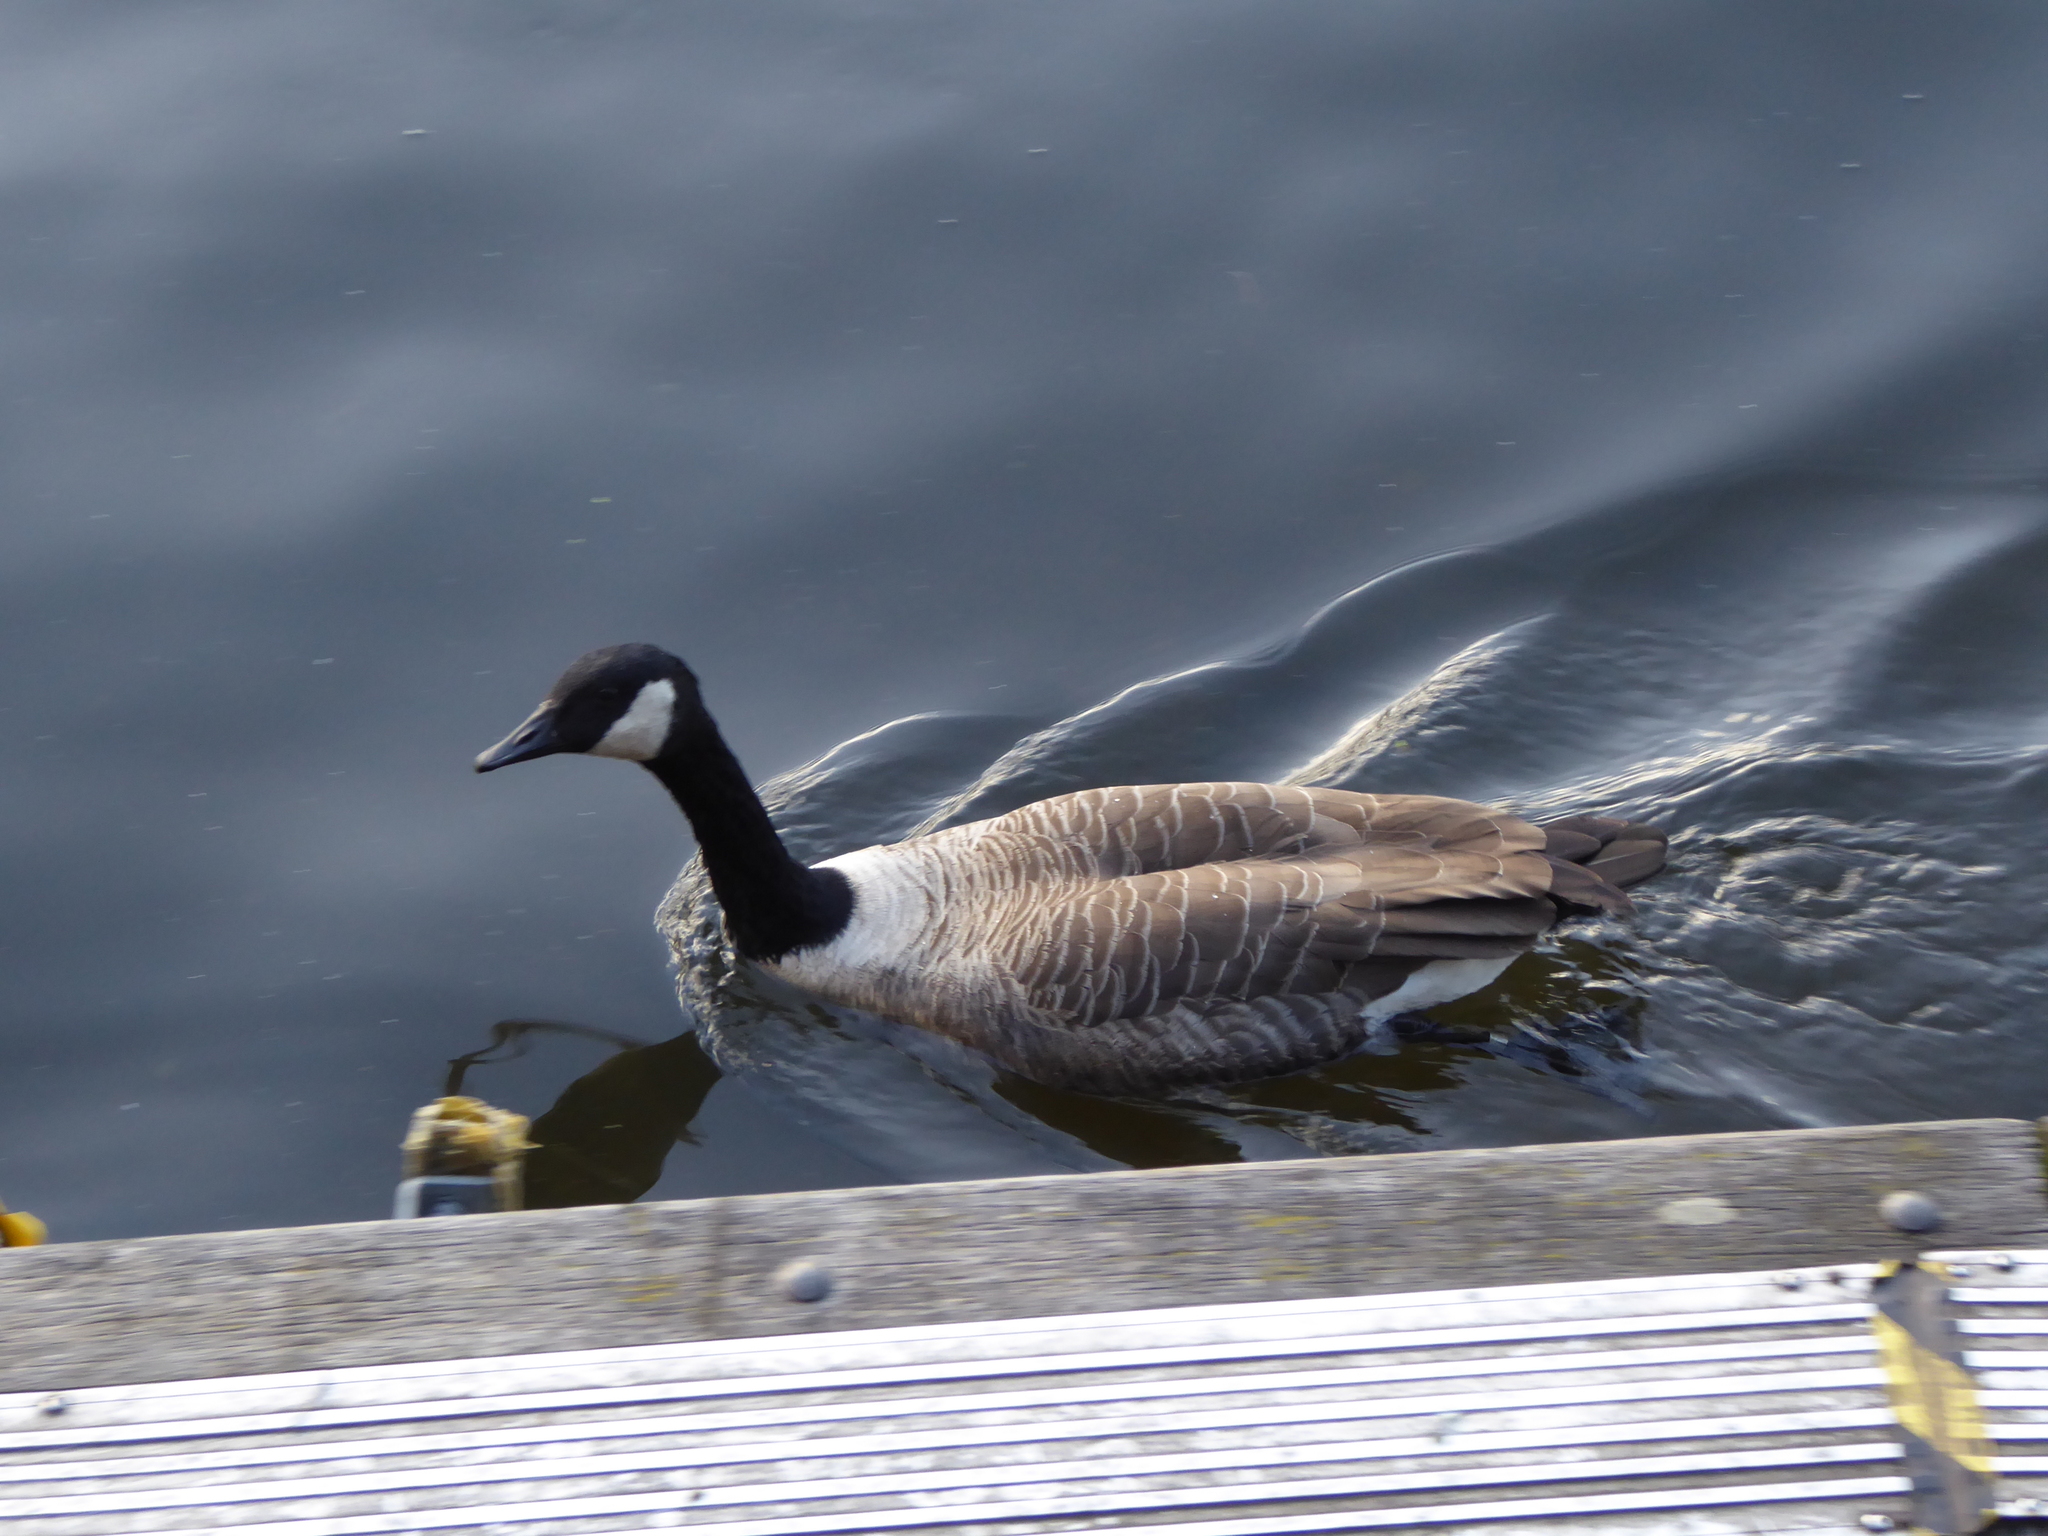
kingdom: Animalia
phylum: Chordata
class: Aves
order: Anseriformes
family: Anatidae
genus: Branta
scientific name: Branta canadensis
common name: Canada goose
